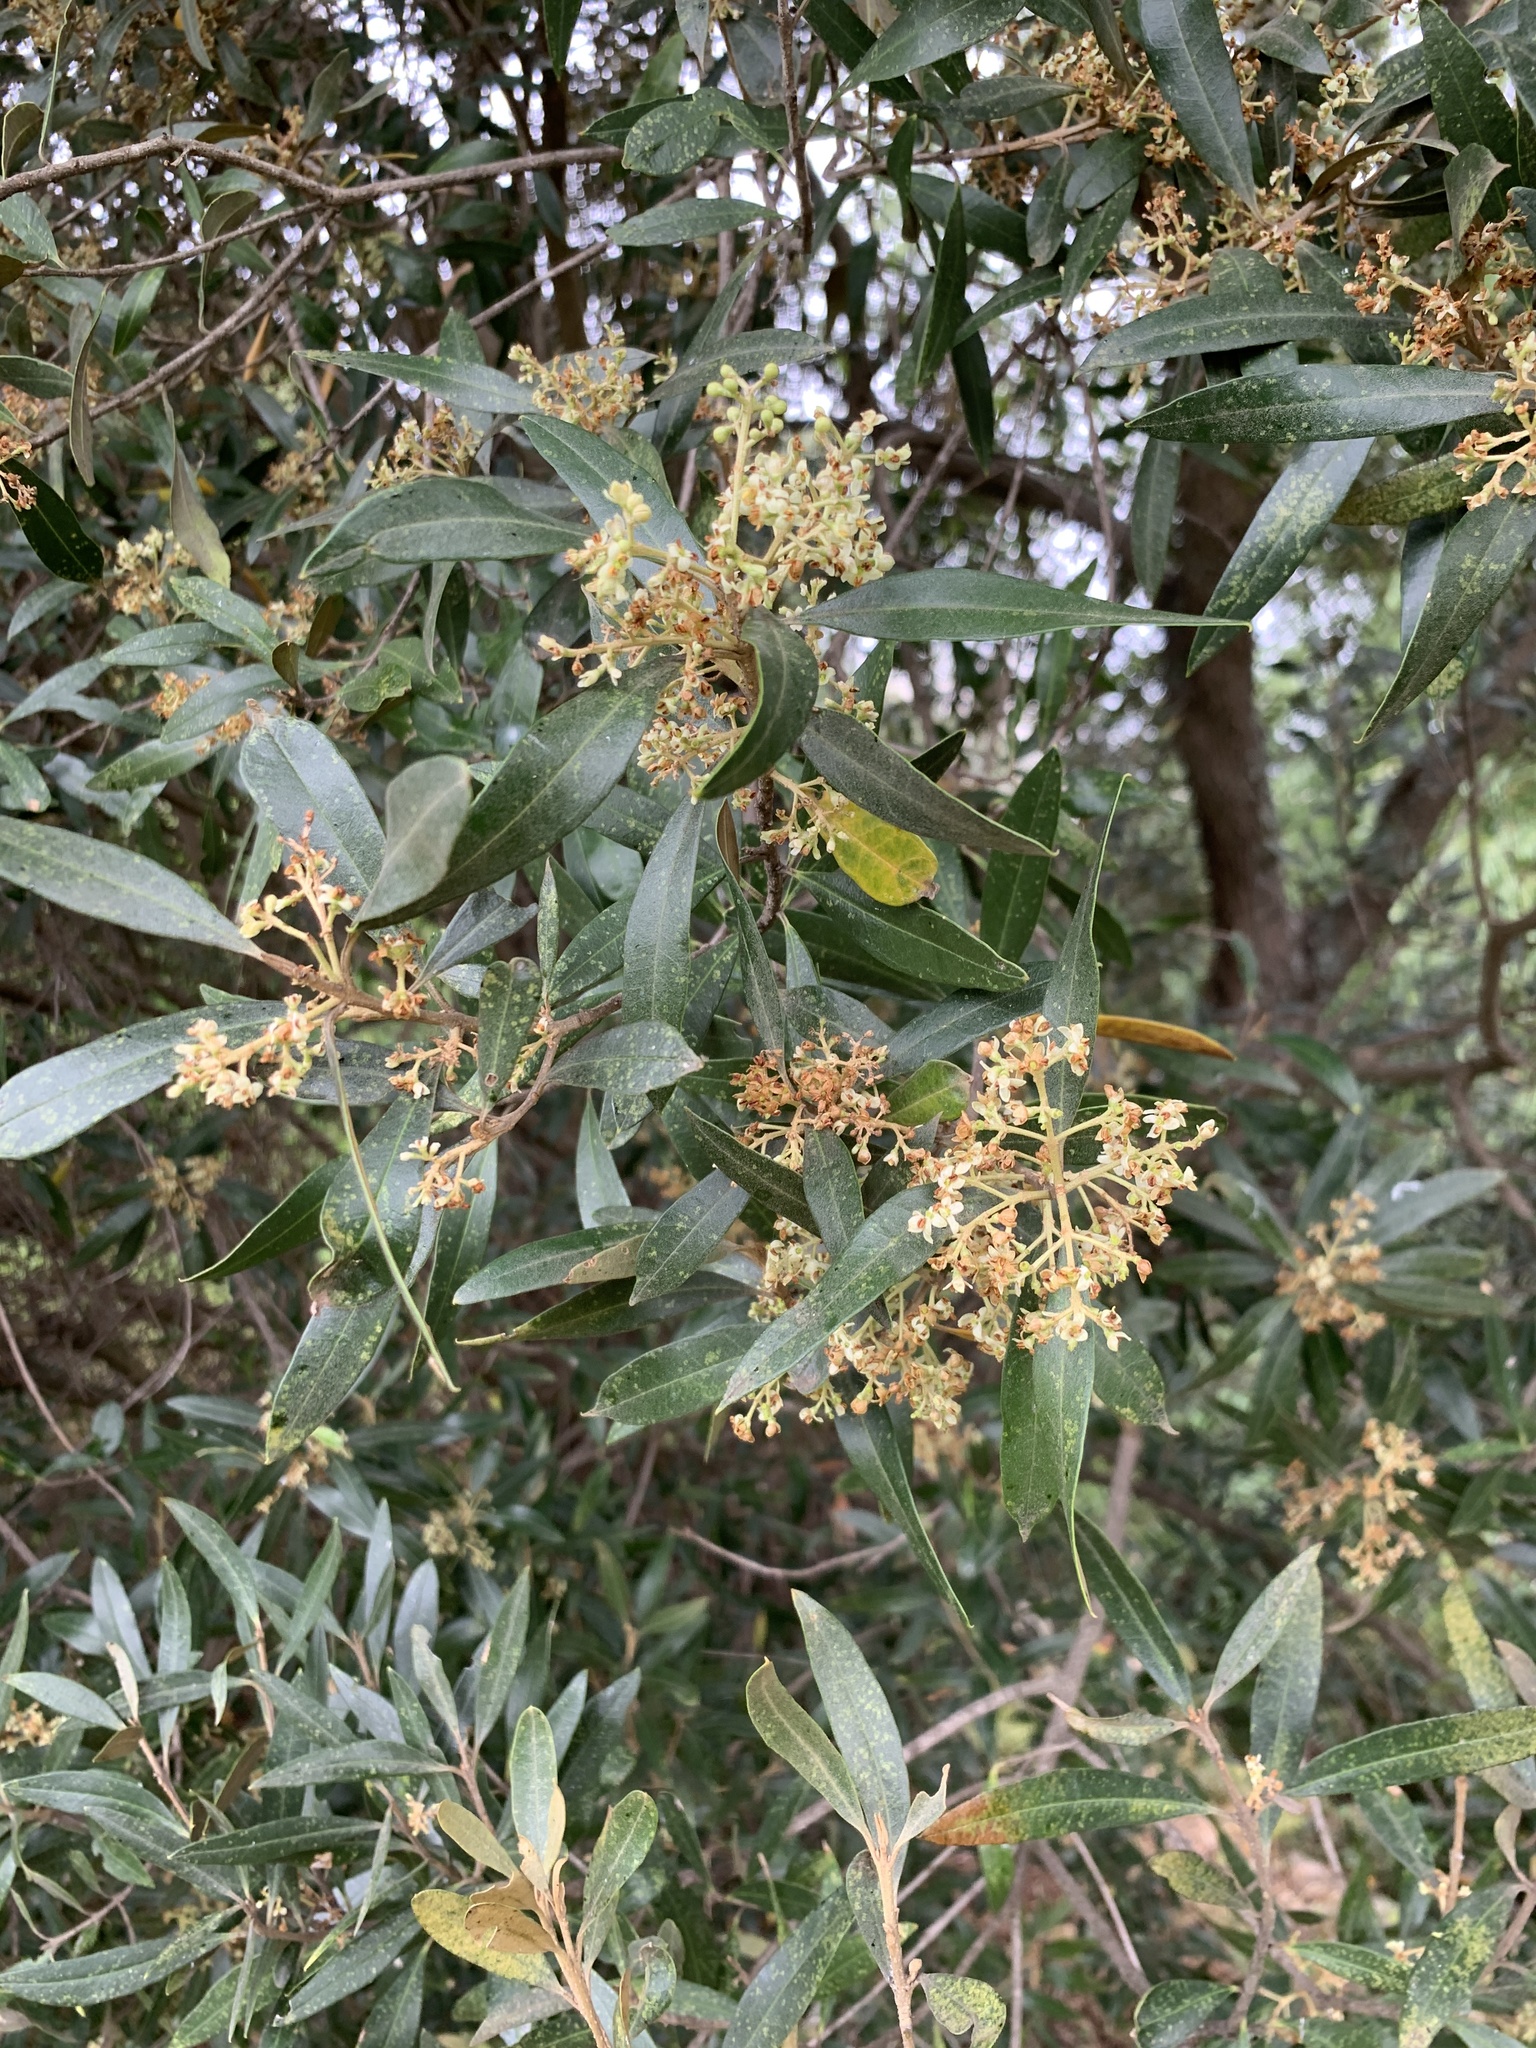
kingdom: Plantae
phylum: Tracheophyta
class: Magnoliopsida
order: Lamiales
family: Oleaceae
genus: Olea
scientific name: Olea europaea
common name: Olive
